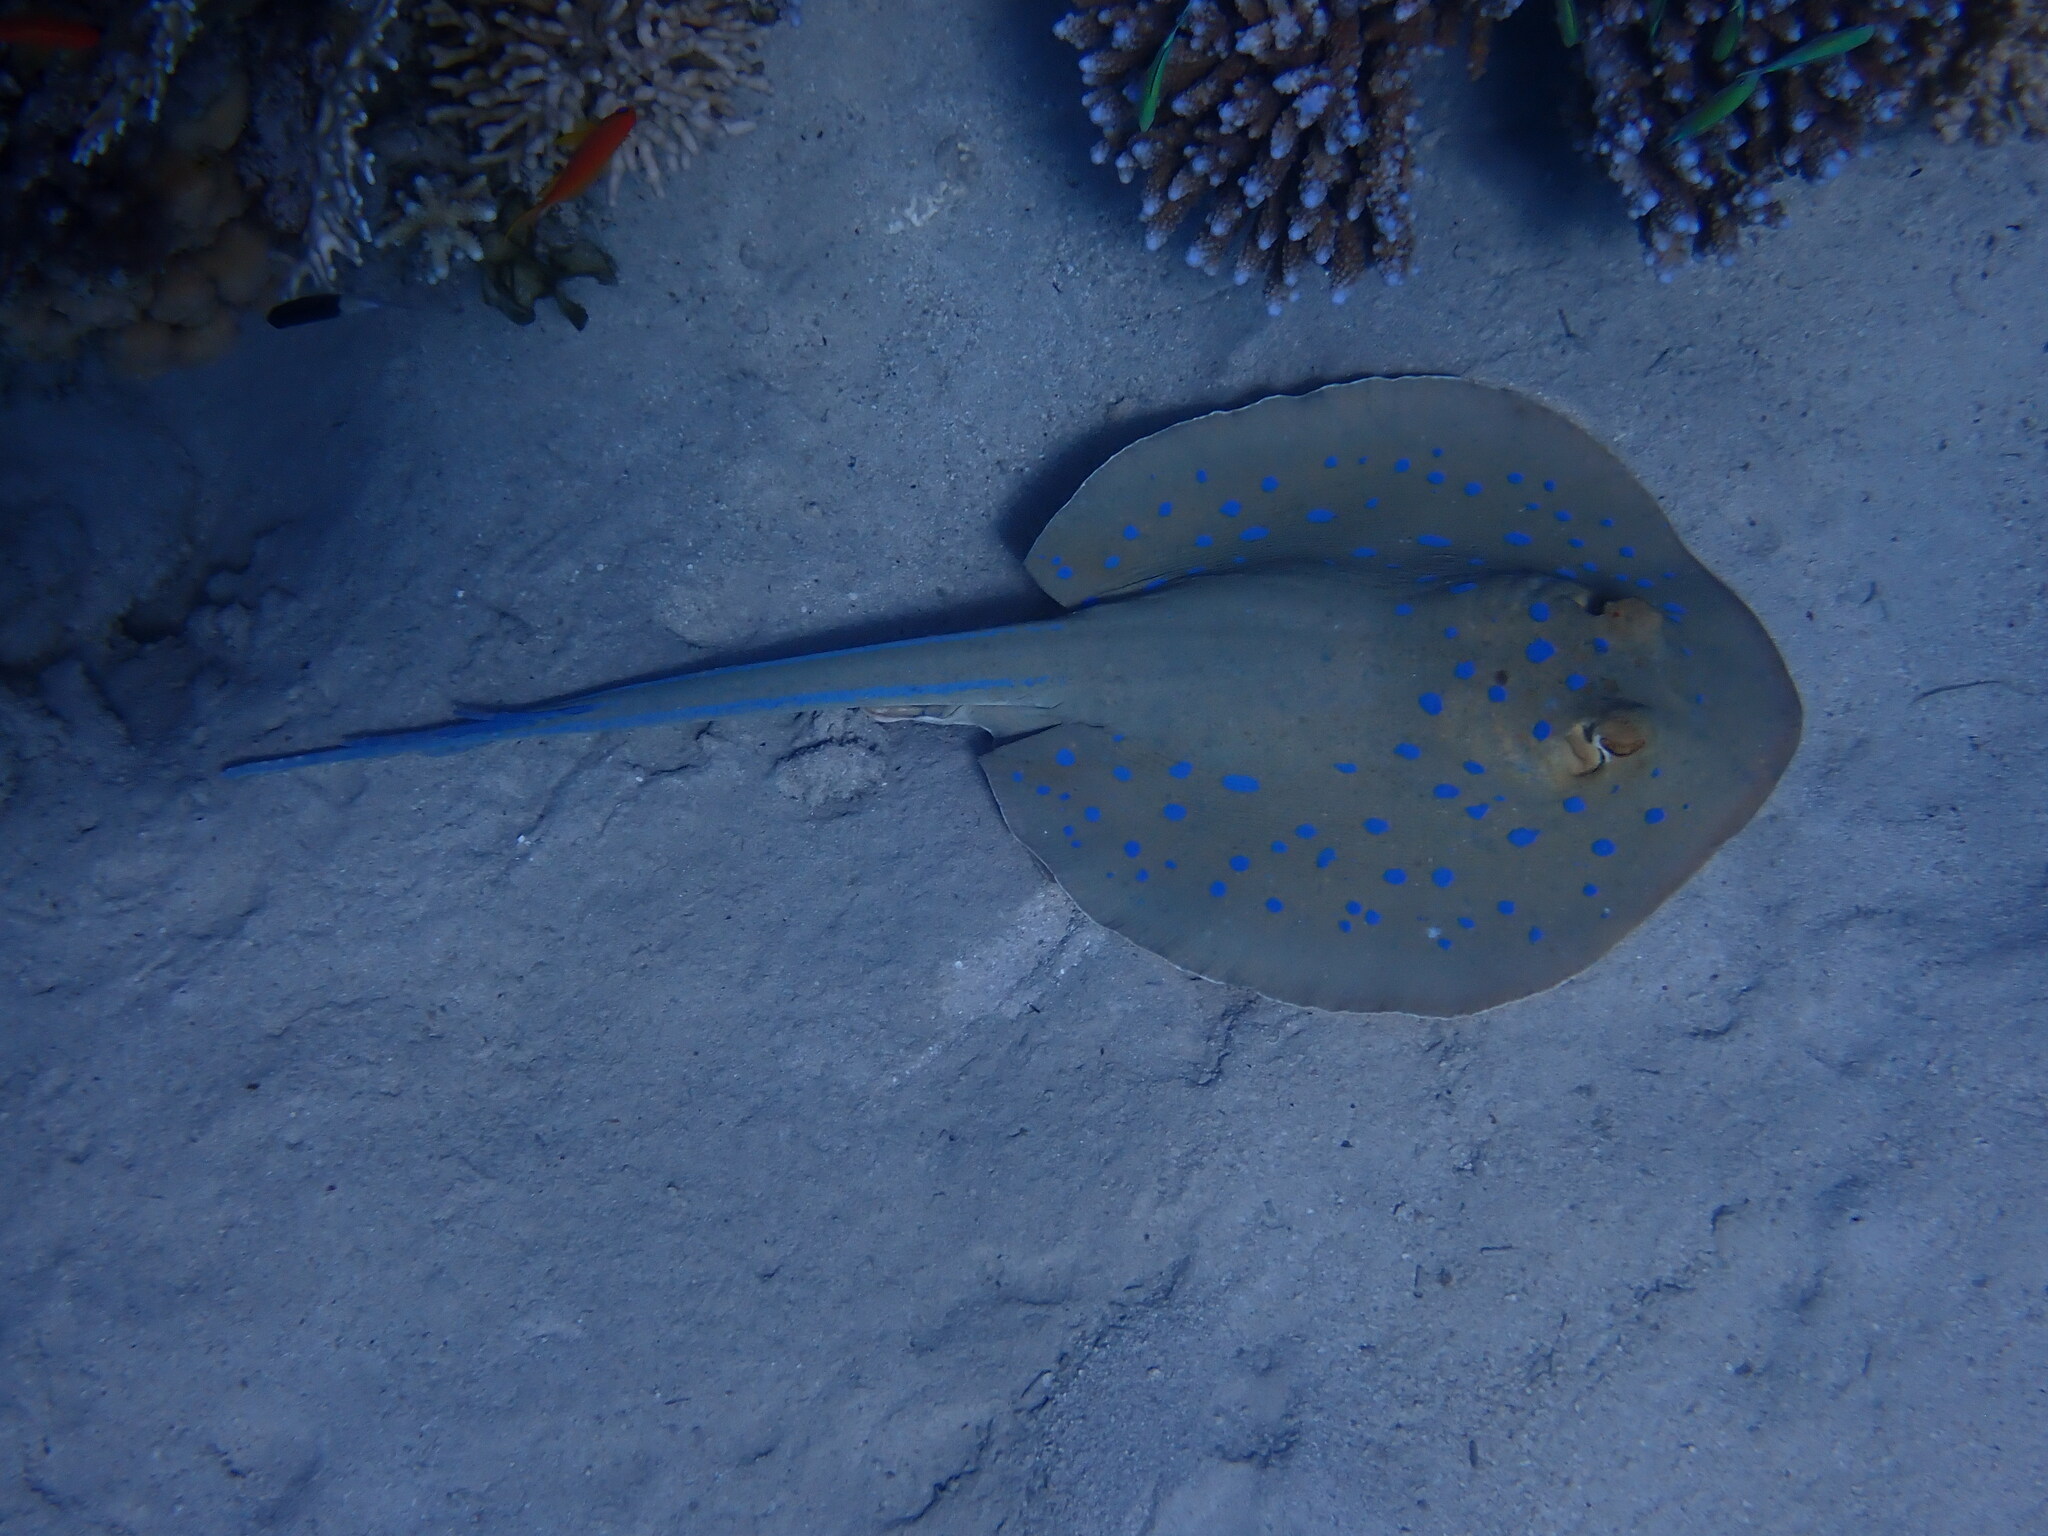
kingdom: Animalia
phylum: Chordata
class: Elasmobranchii
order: Myliobatiformes
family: Dasyatidae
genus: Taeniura
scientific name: Taeniura lymma
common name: Bluespotted ribbontail ray
